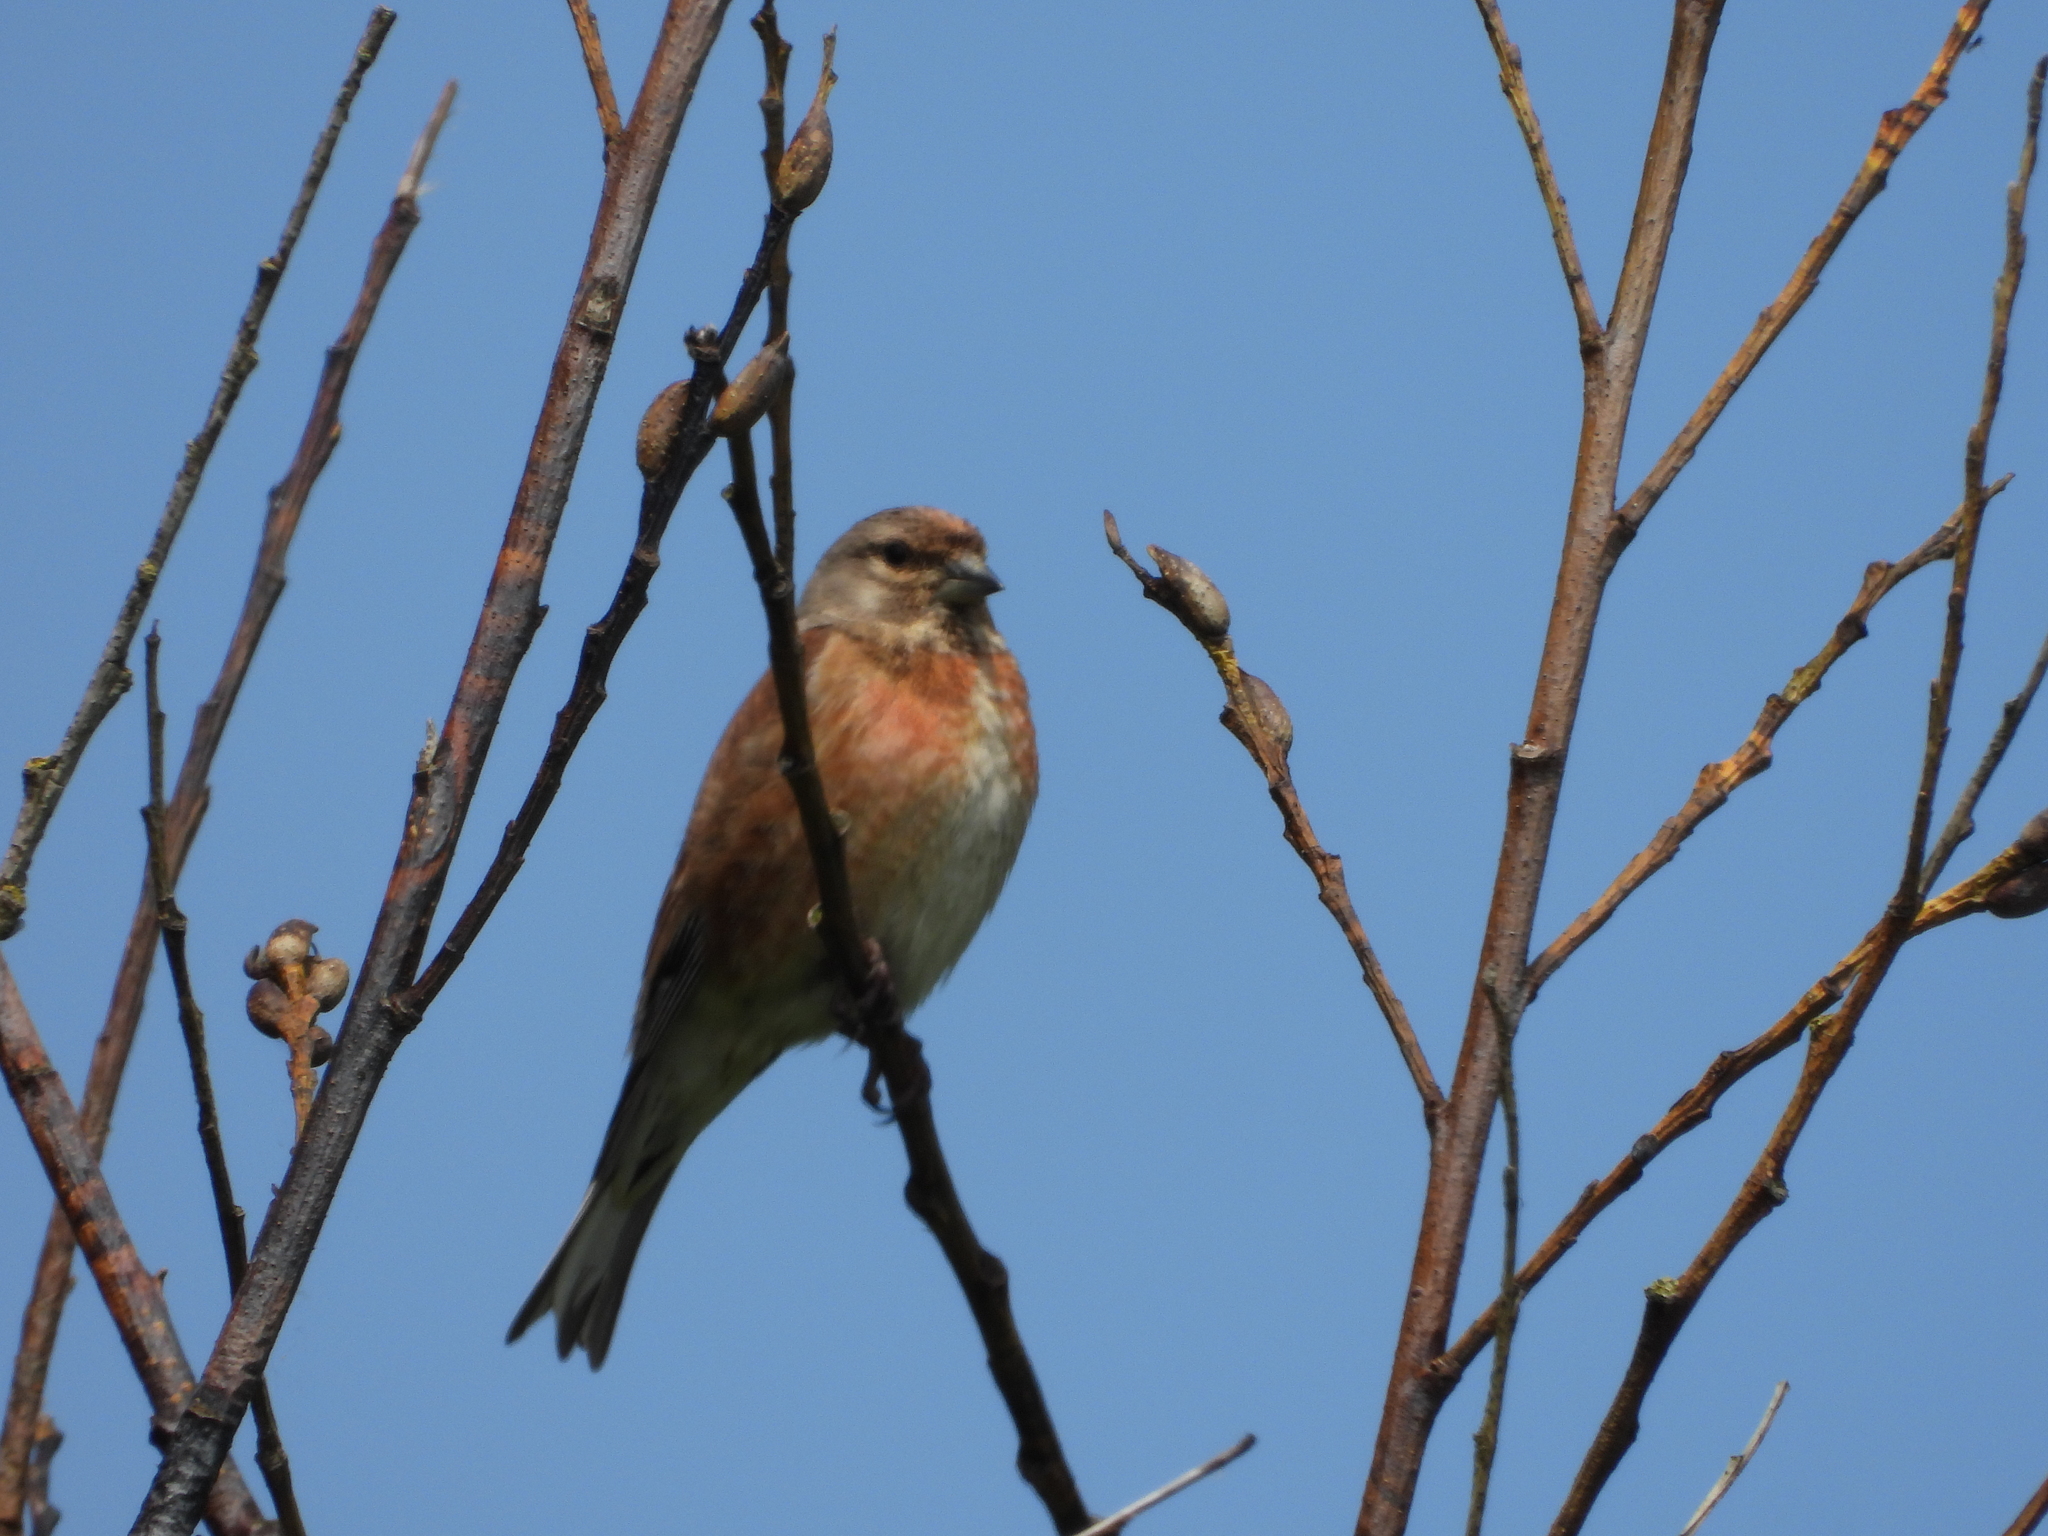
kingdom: Animalia
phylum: Chordata
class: Aves
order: Passeriformes
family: Fringillidae
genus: Linaria
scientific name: Linaria cannabina
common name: Common linnet
